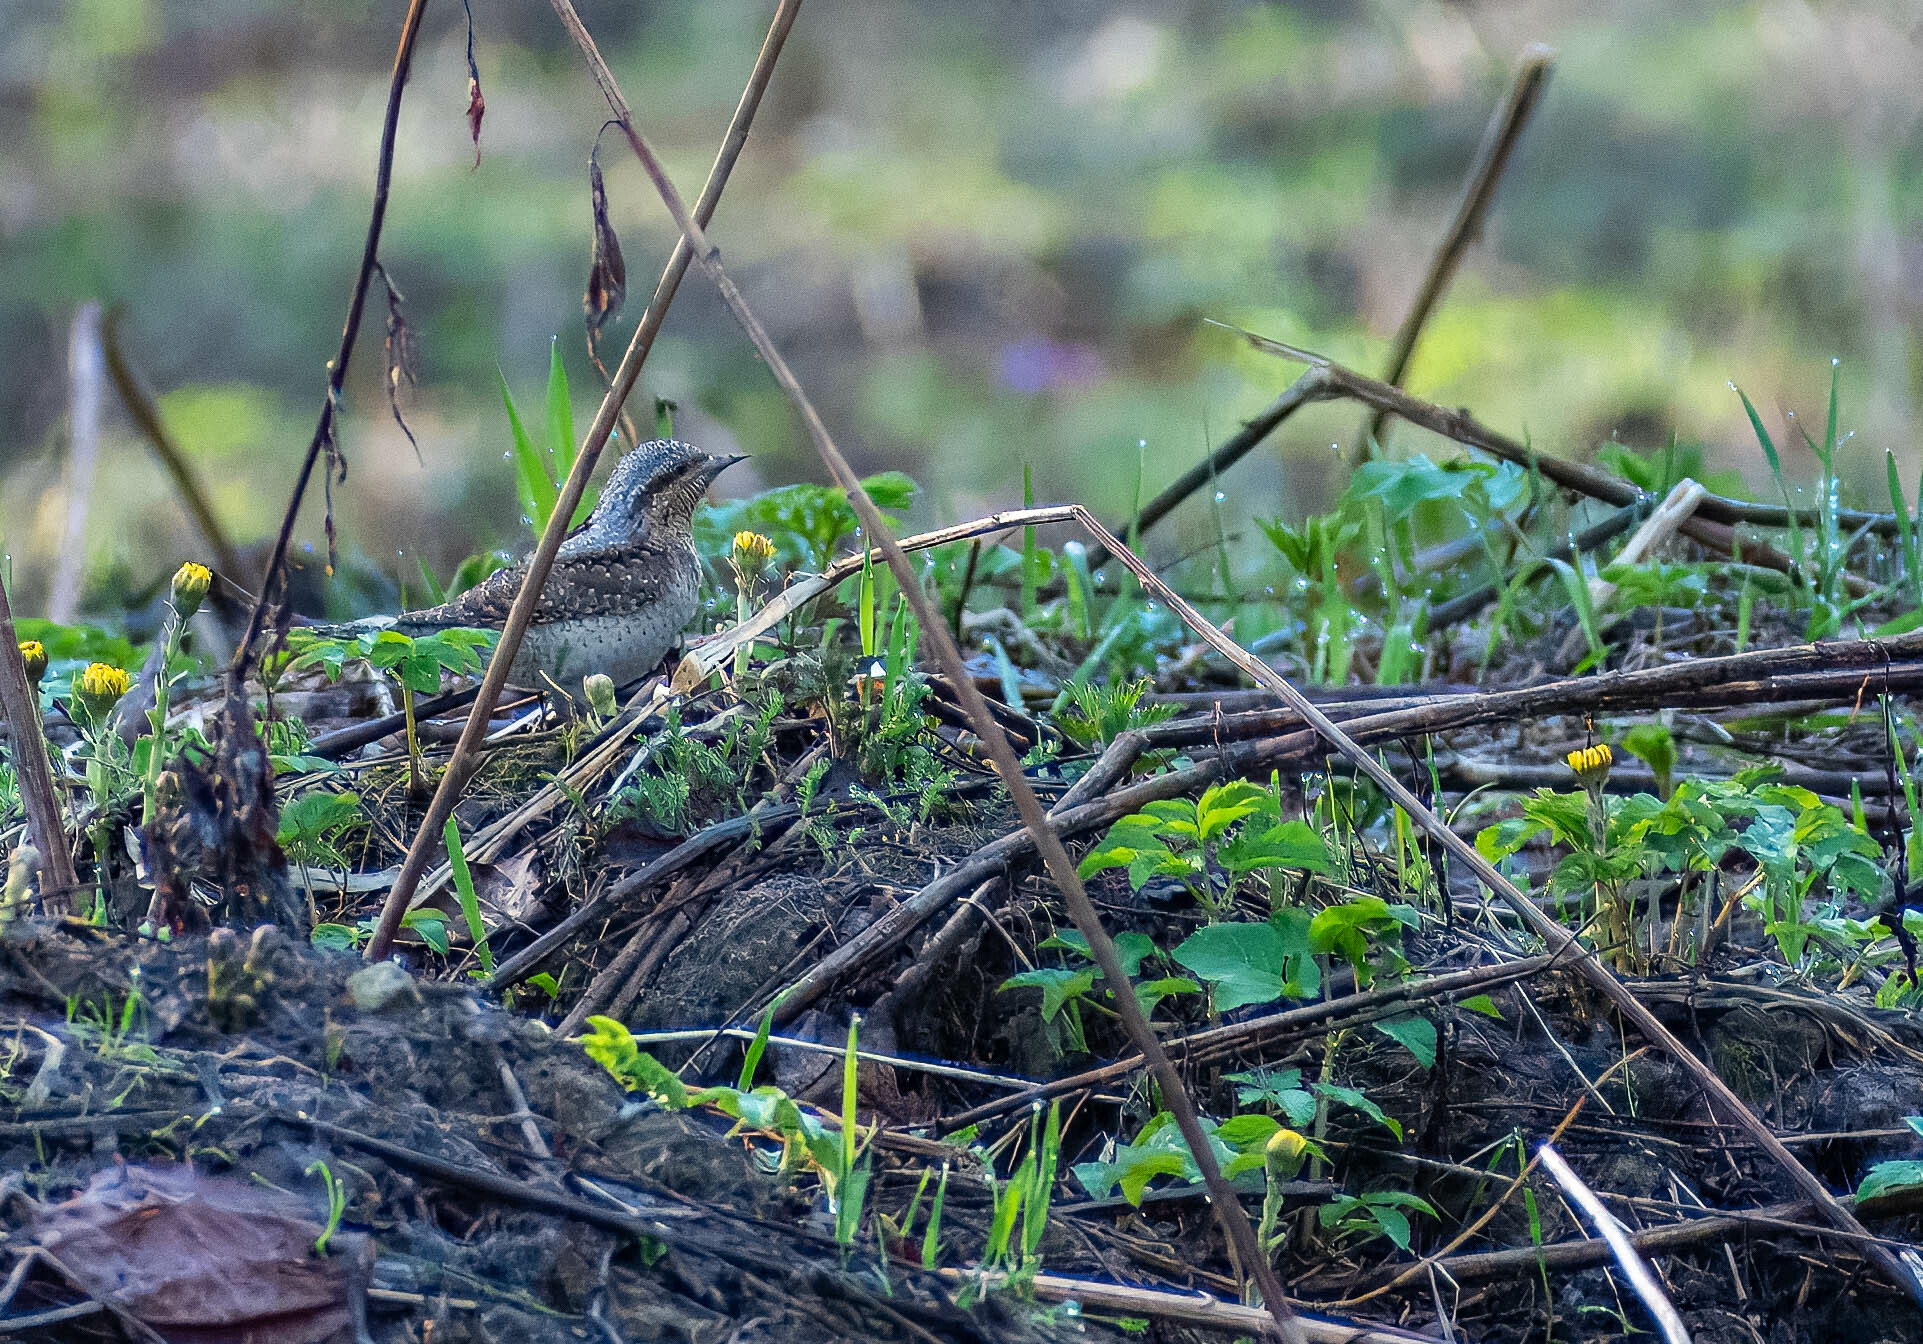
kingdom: Animalia
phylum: Chordata
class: Aves
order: Piciformes
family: Picidae
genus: Jynx
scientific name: Jynx torquilla
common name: Eurasian wryneck
